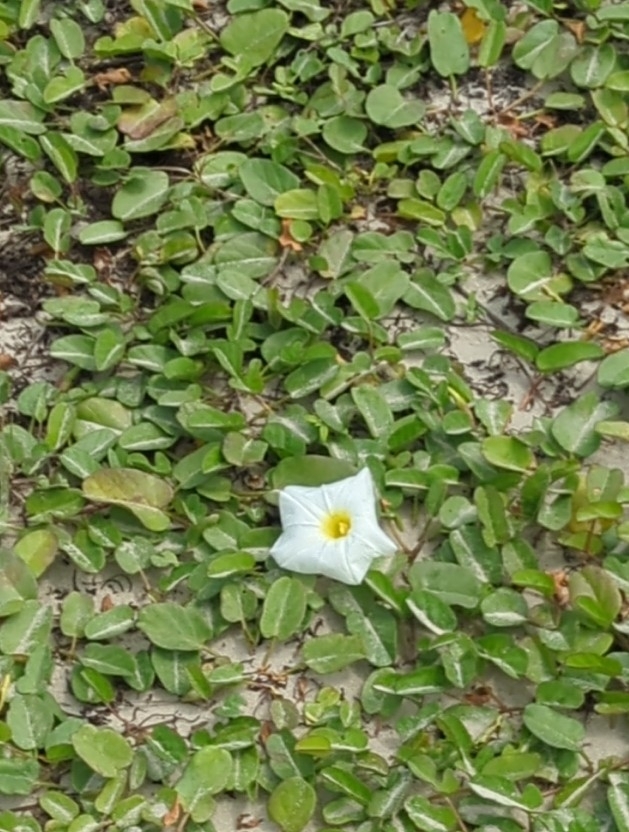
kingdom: Plantae
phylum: Tracheophyta
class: Magnoliopsida
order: Solanales
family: Convolvulaceae
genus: Ipomoea
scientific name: Ipomoea imperati
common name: Fiddle-leaf morning-glory
